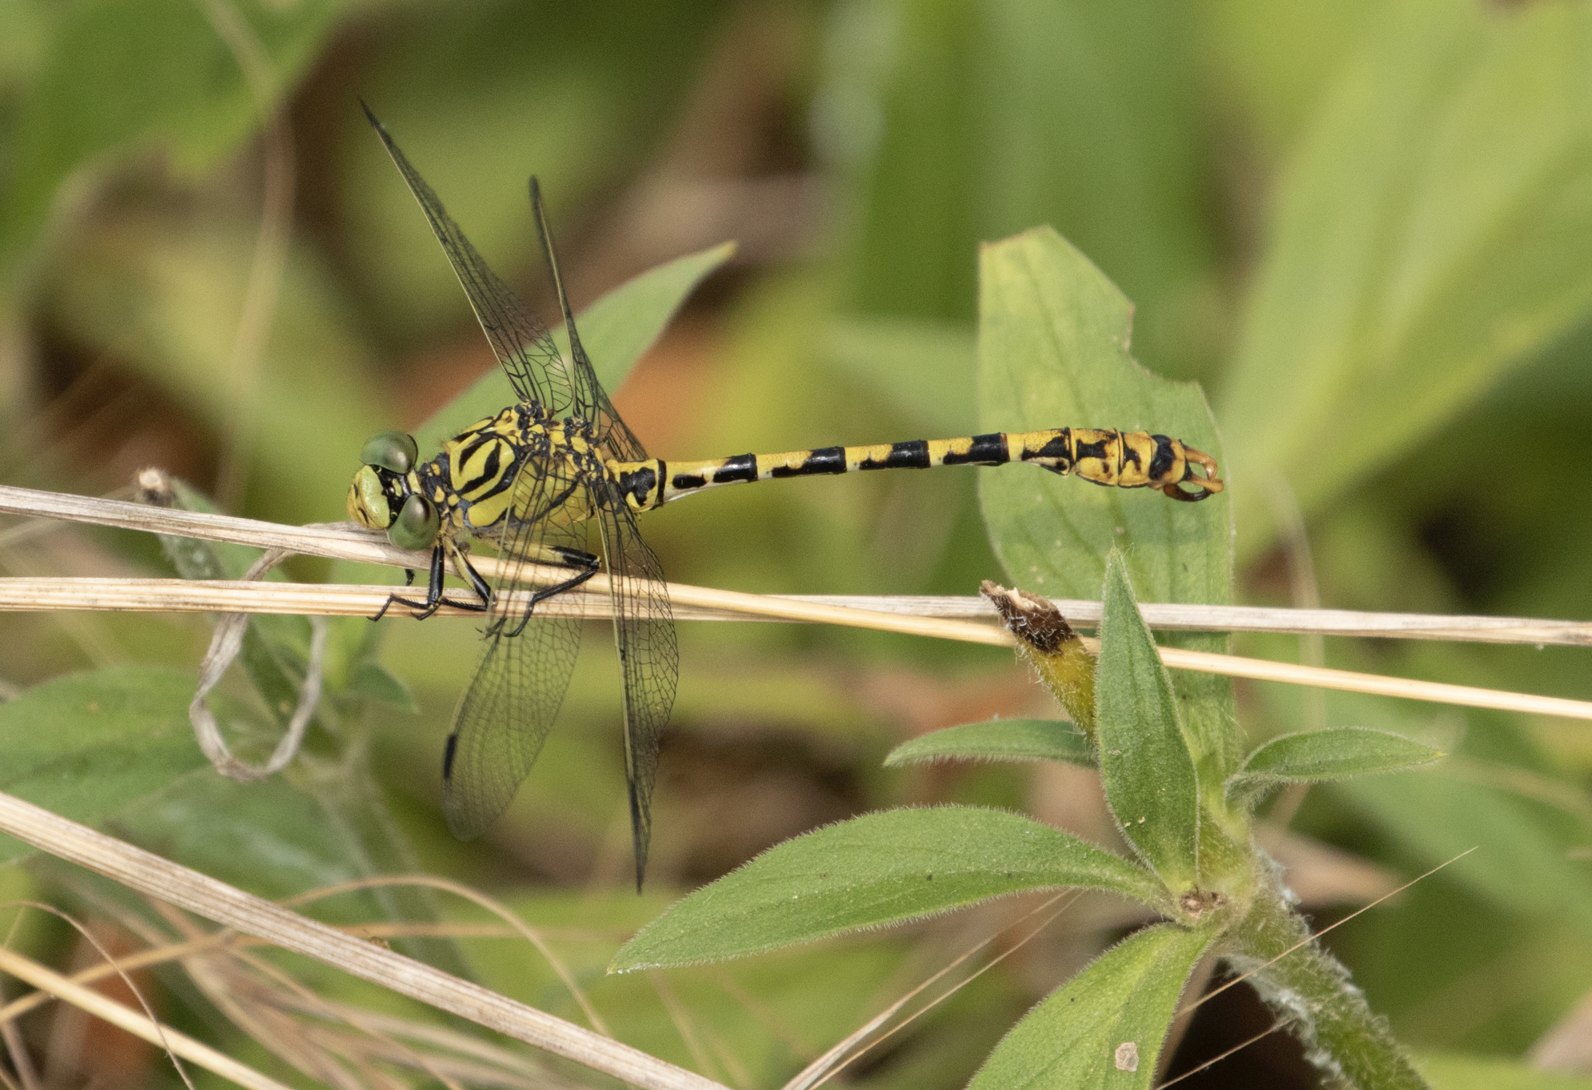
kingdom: Animalia
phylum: Arthropoda
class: Insecta
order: Odonata
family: Gomphidae
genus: Onychogomphus
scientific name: Onychogomphus forcipatus
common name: Small pincertail
